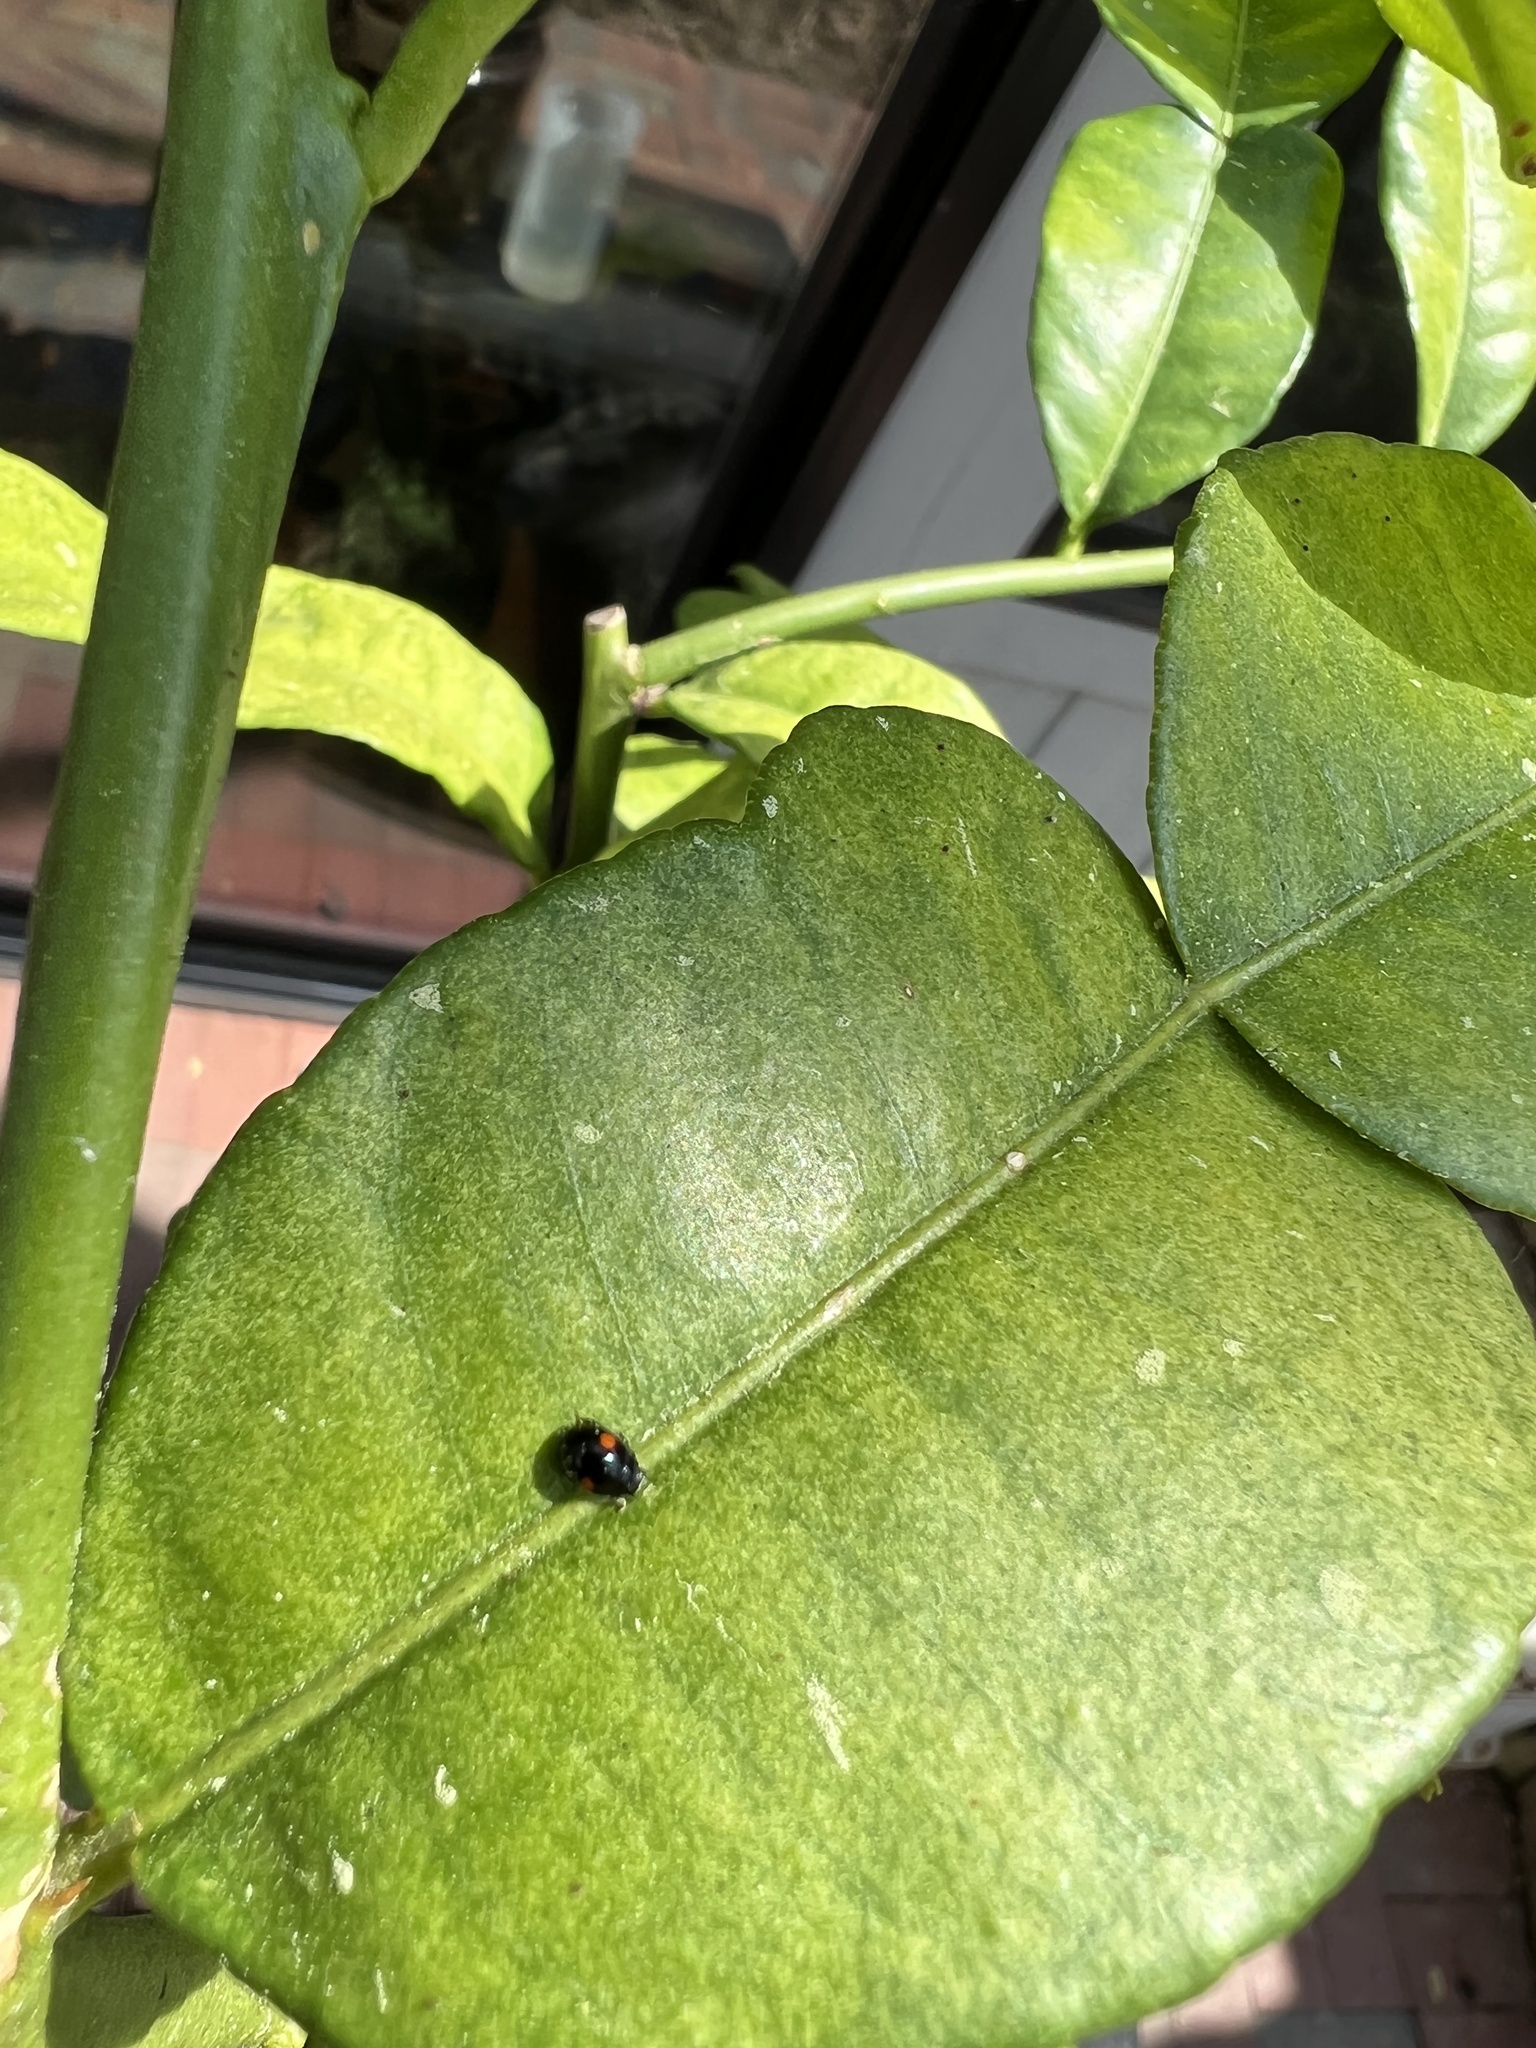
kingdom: Animalia
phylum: Arthropoda
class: Insecta
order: Coleoptera
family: Coccinellidae
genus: Chilocorus
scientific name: Chilocorus stigma
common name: Twicestabbed lady beetle
